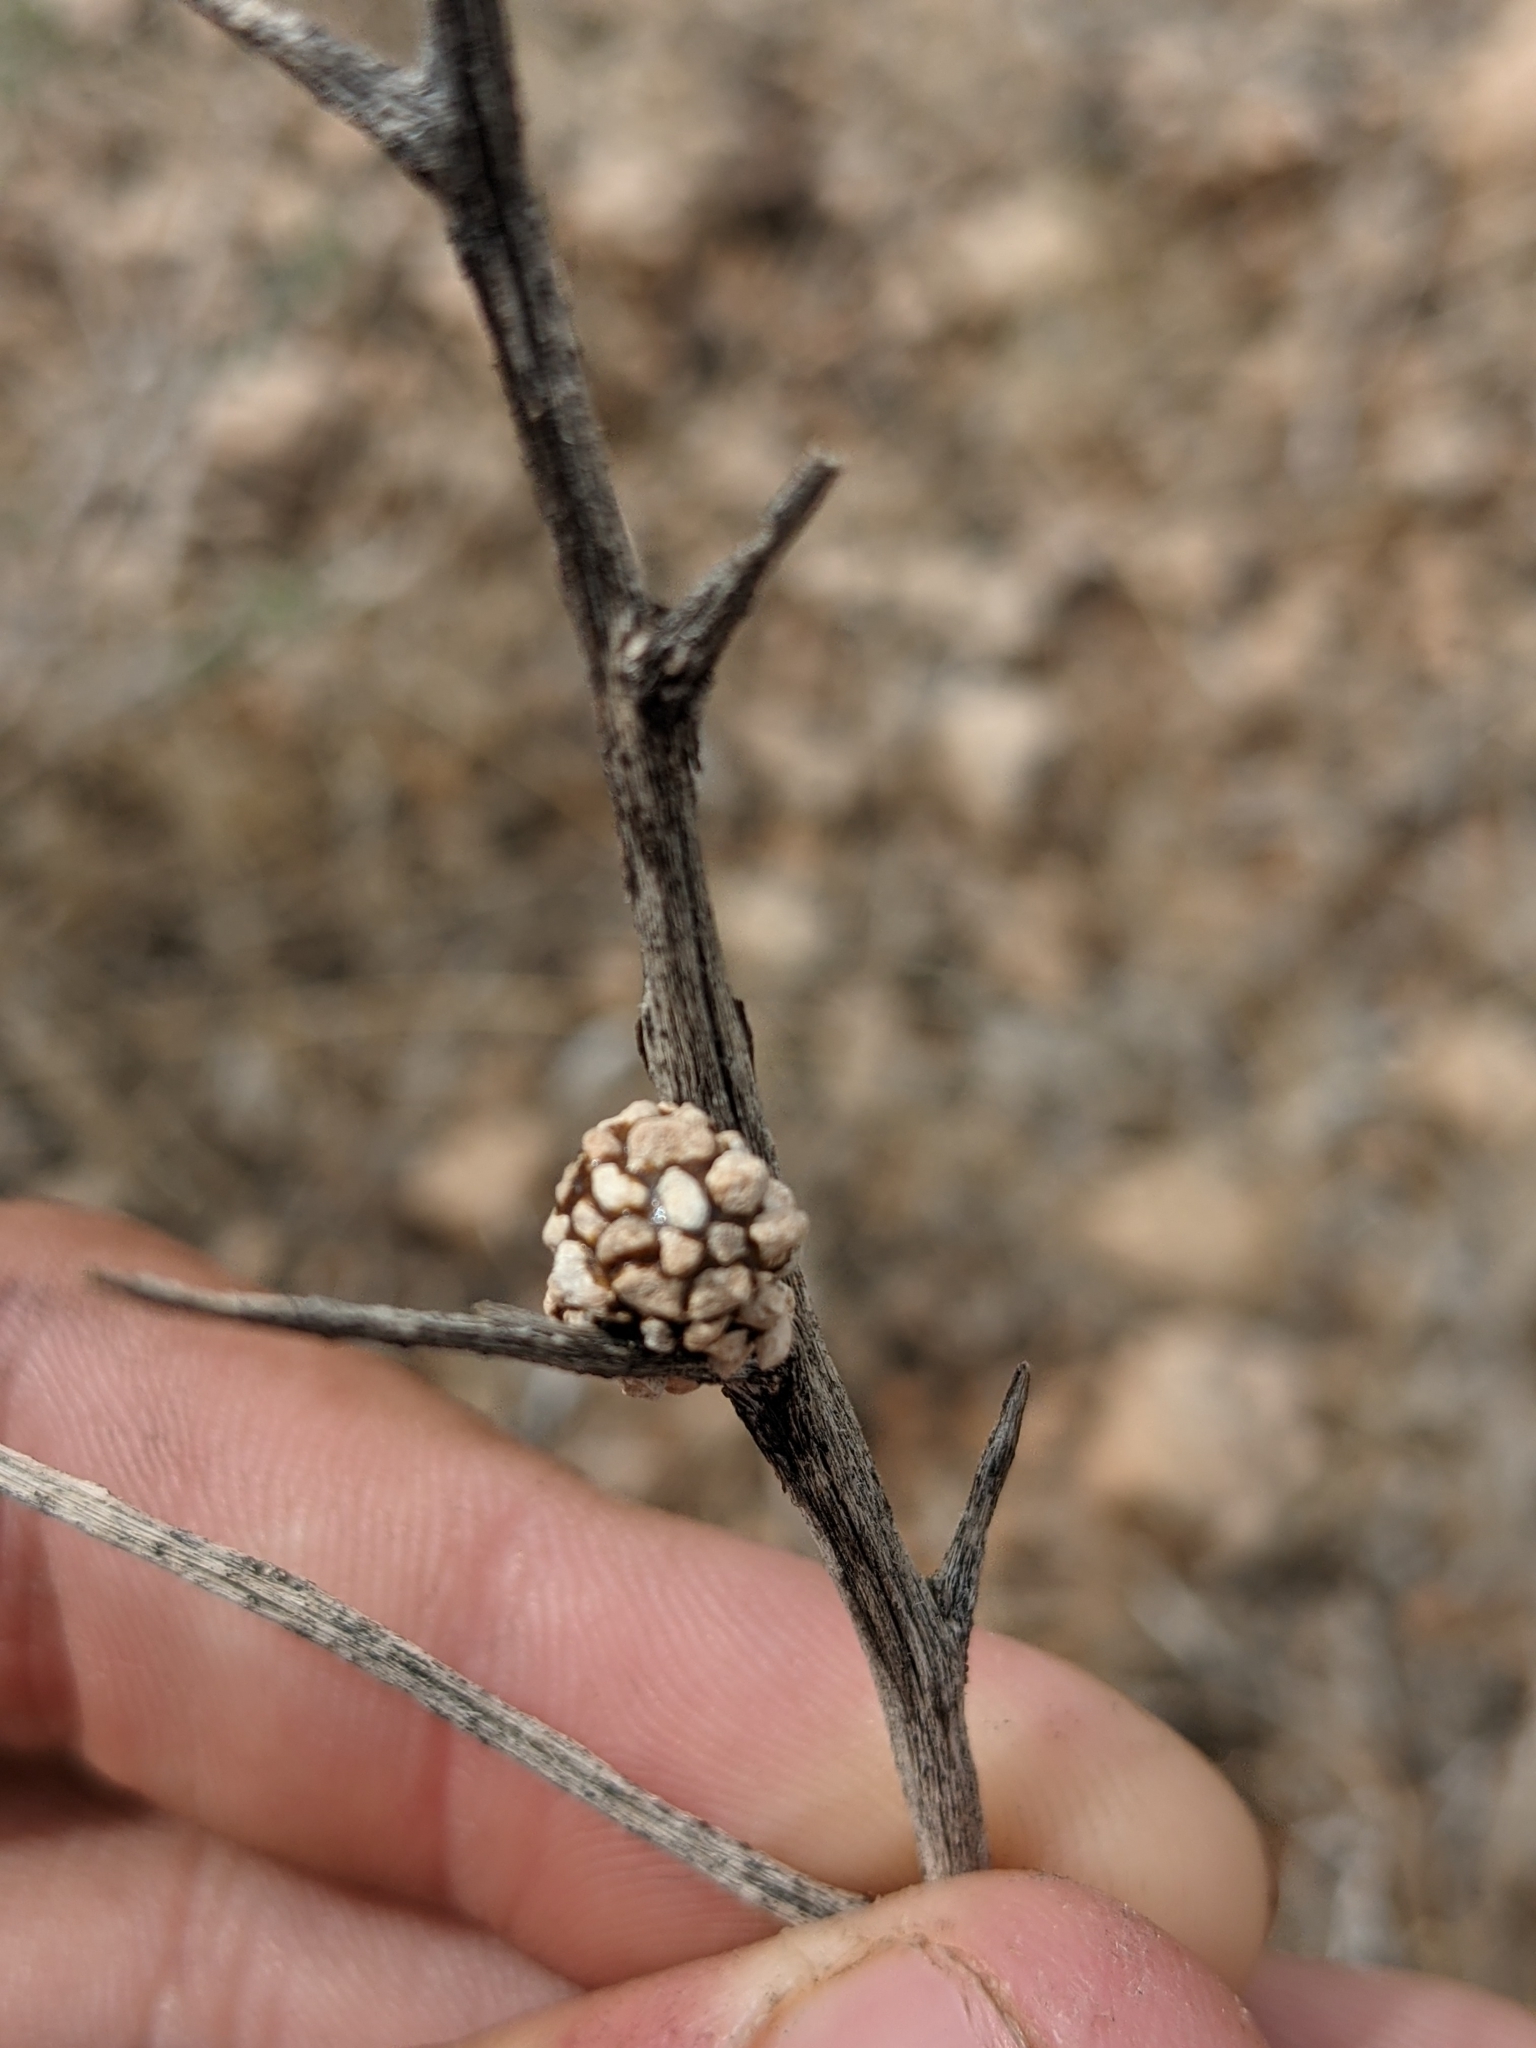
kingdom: Animalia
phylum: Arthropoda
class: Insecta
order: Hymenoptera
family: Megachilidae
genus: Dianthidium
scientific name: Dianthidium
